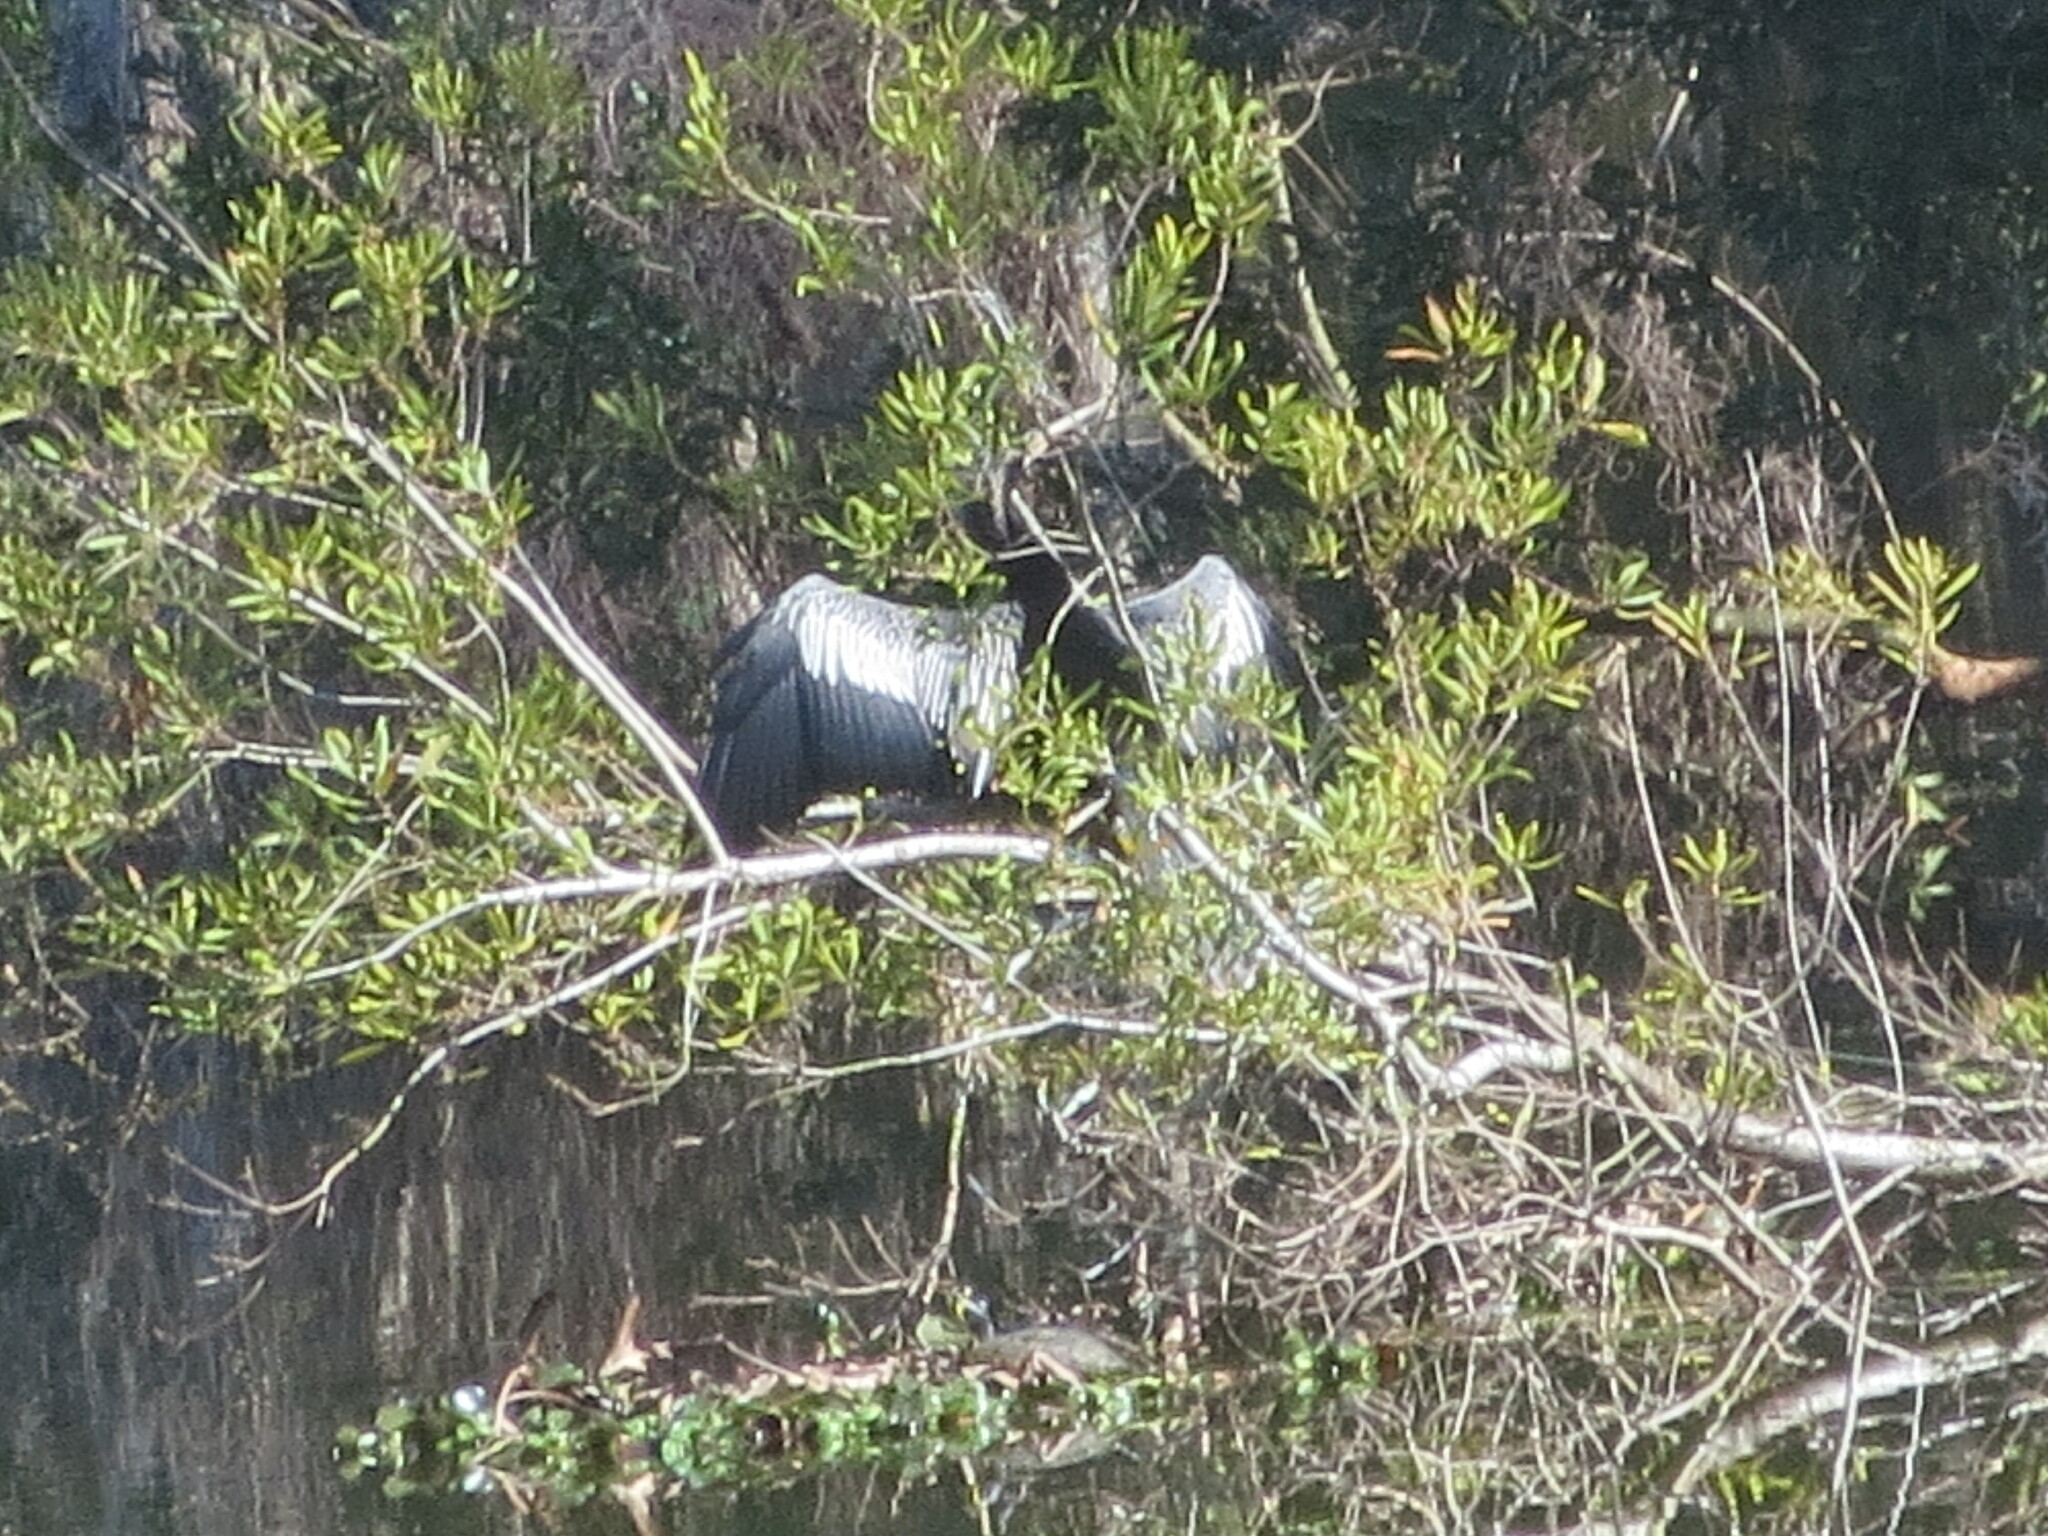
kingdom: Animalia
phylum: Chordata
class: Aves
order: Suliformes
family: Anhingidae
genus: Anhinga
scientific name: Anhinga anhinga
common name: Anhinga
